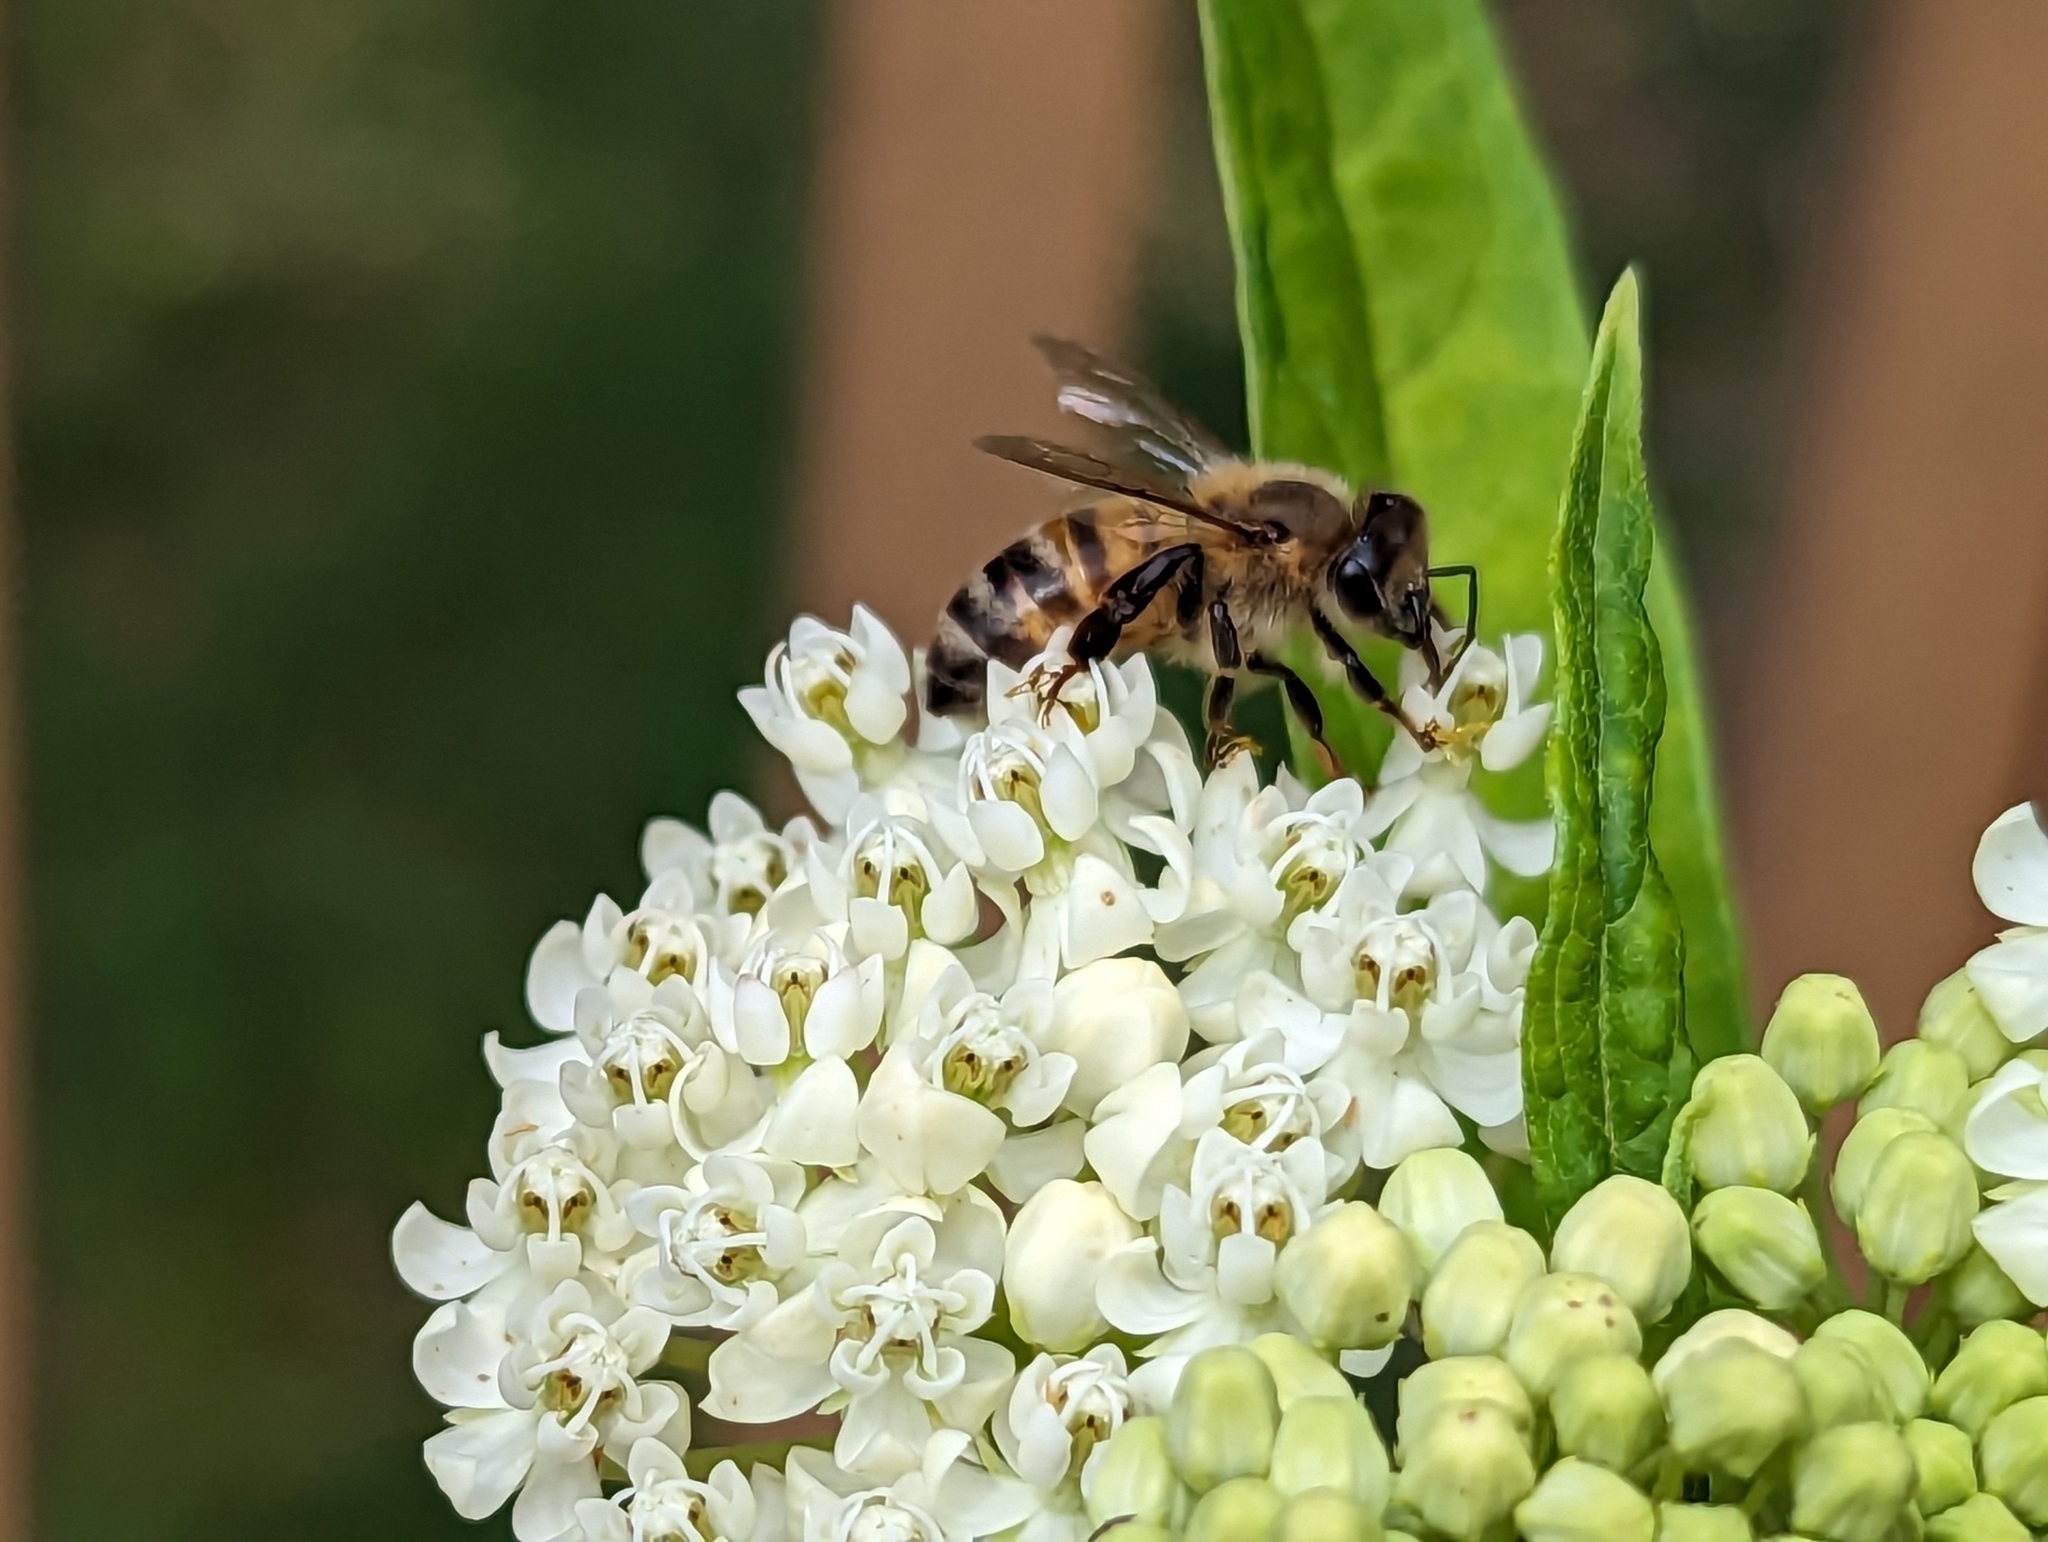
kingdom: Animalia
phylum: Arthropoda
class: Insecta
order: Hymenoptera
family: Apidae
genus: Apis
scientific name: Apis mellifera
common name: Honey bee
